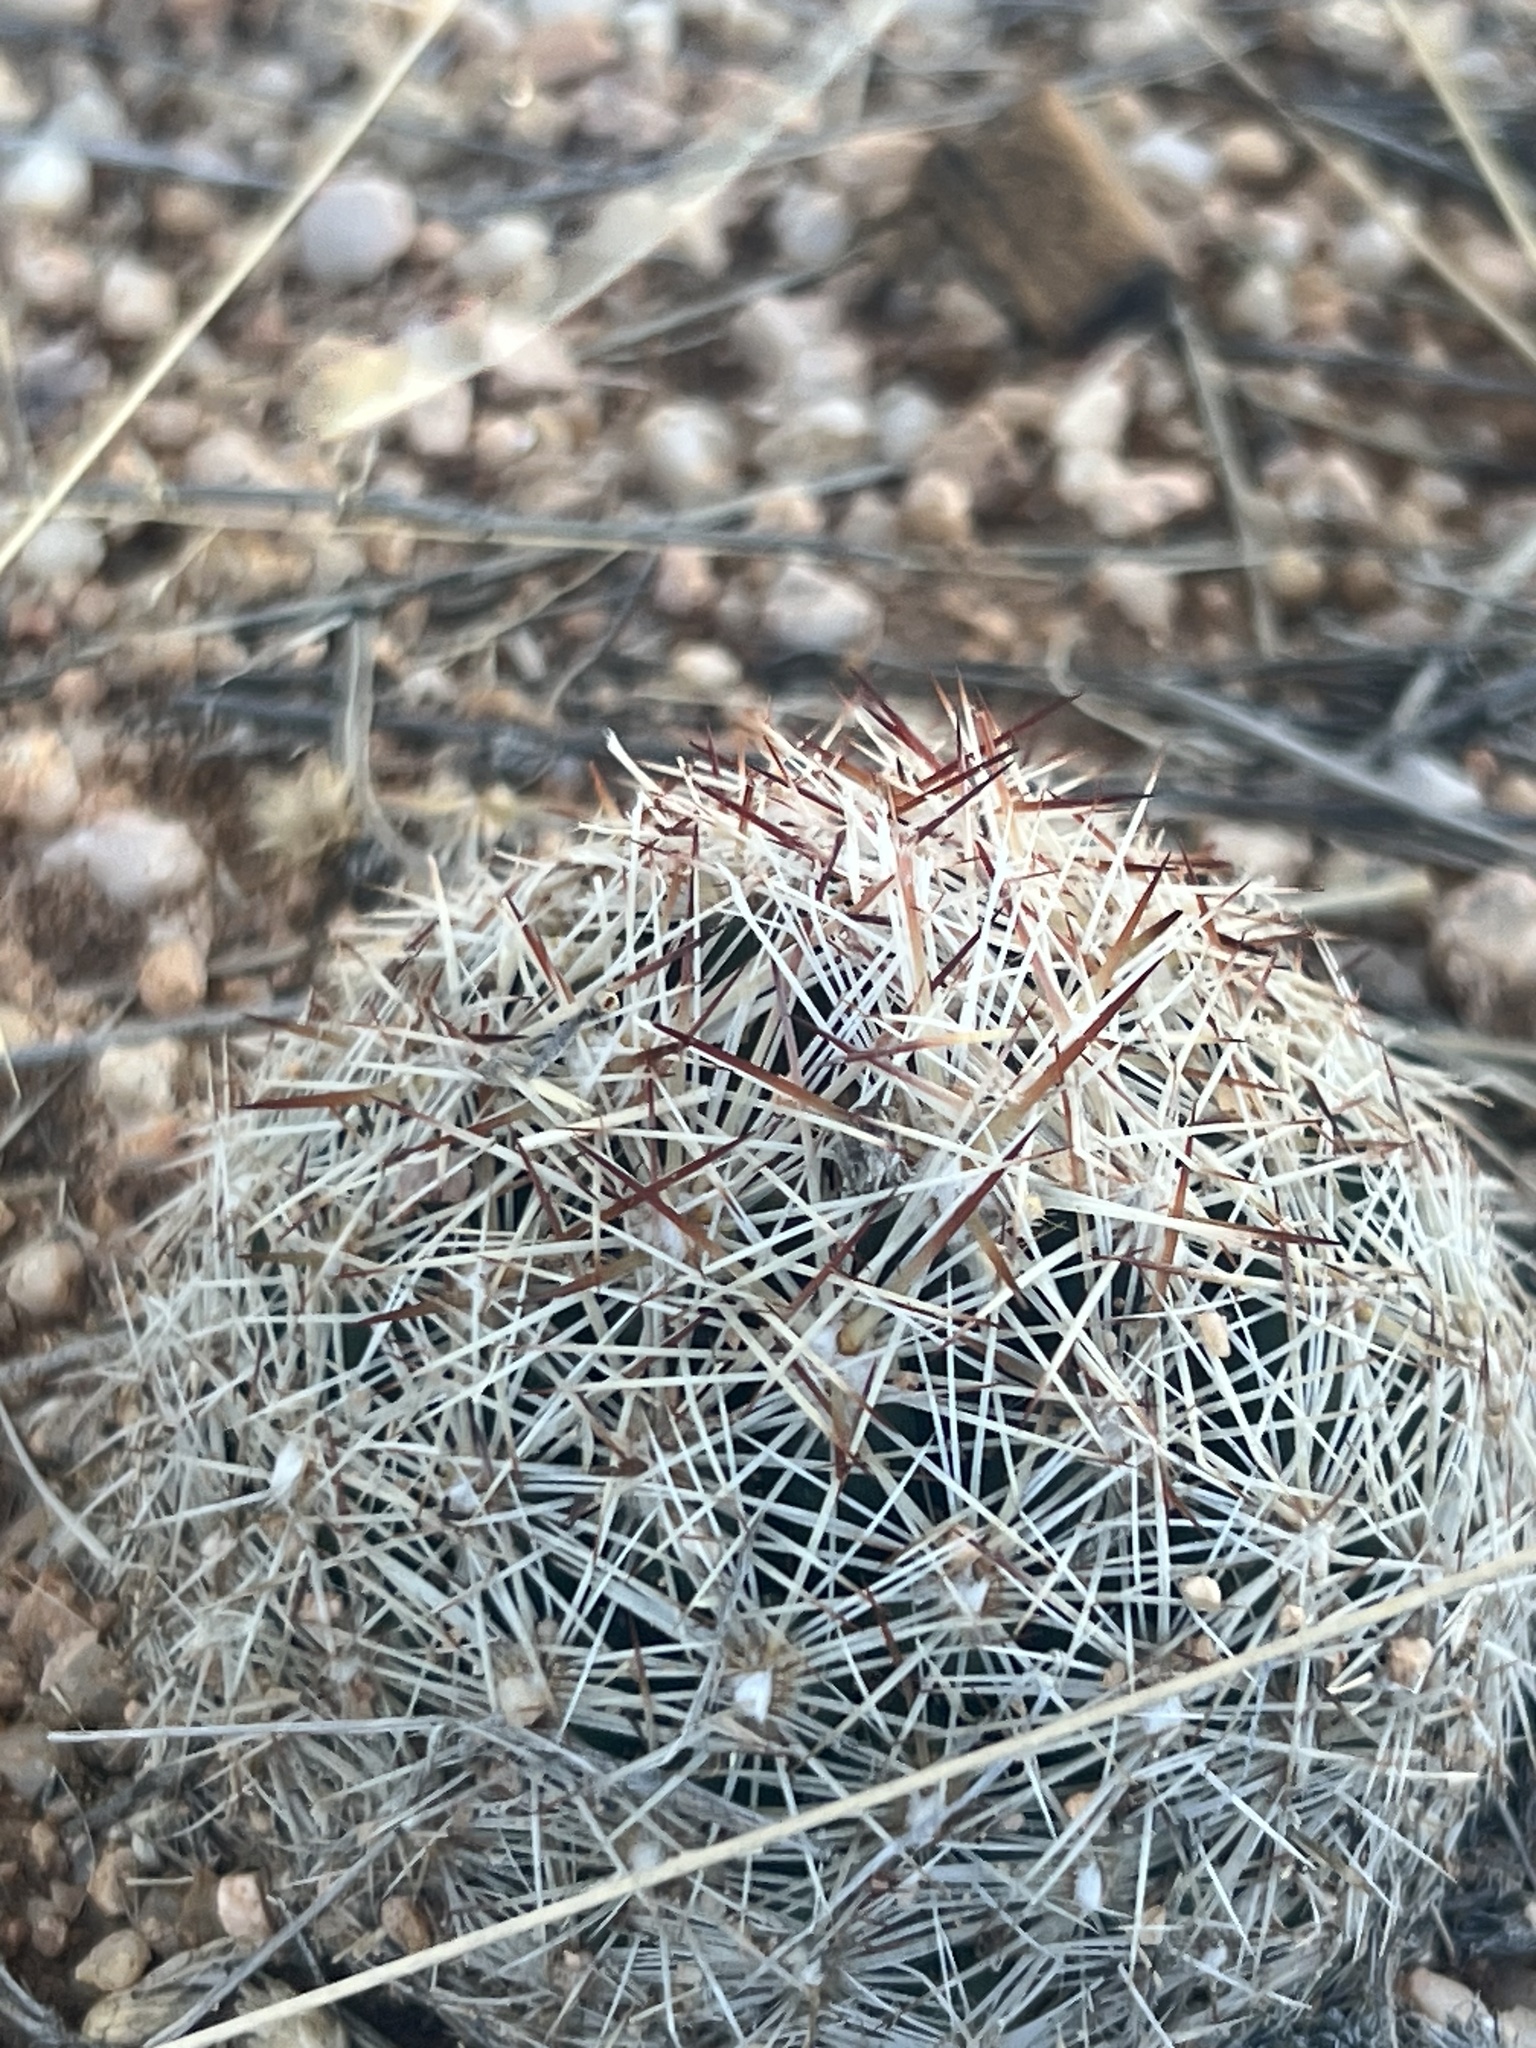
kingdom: Plantae
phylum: Tracheophyta
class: Magnoliopsida
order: Caryophyllales
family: Cactaceae
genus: Pelecyphora
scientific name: Pelecyphora vivipara
